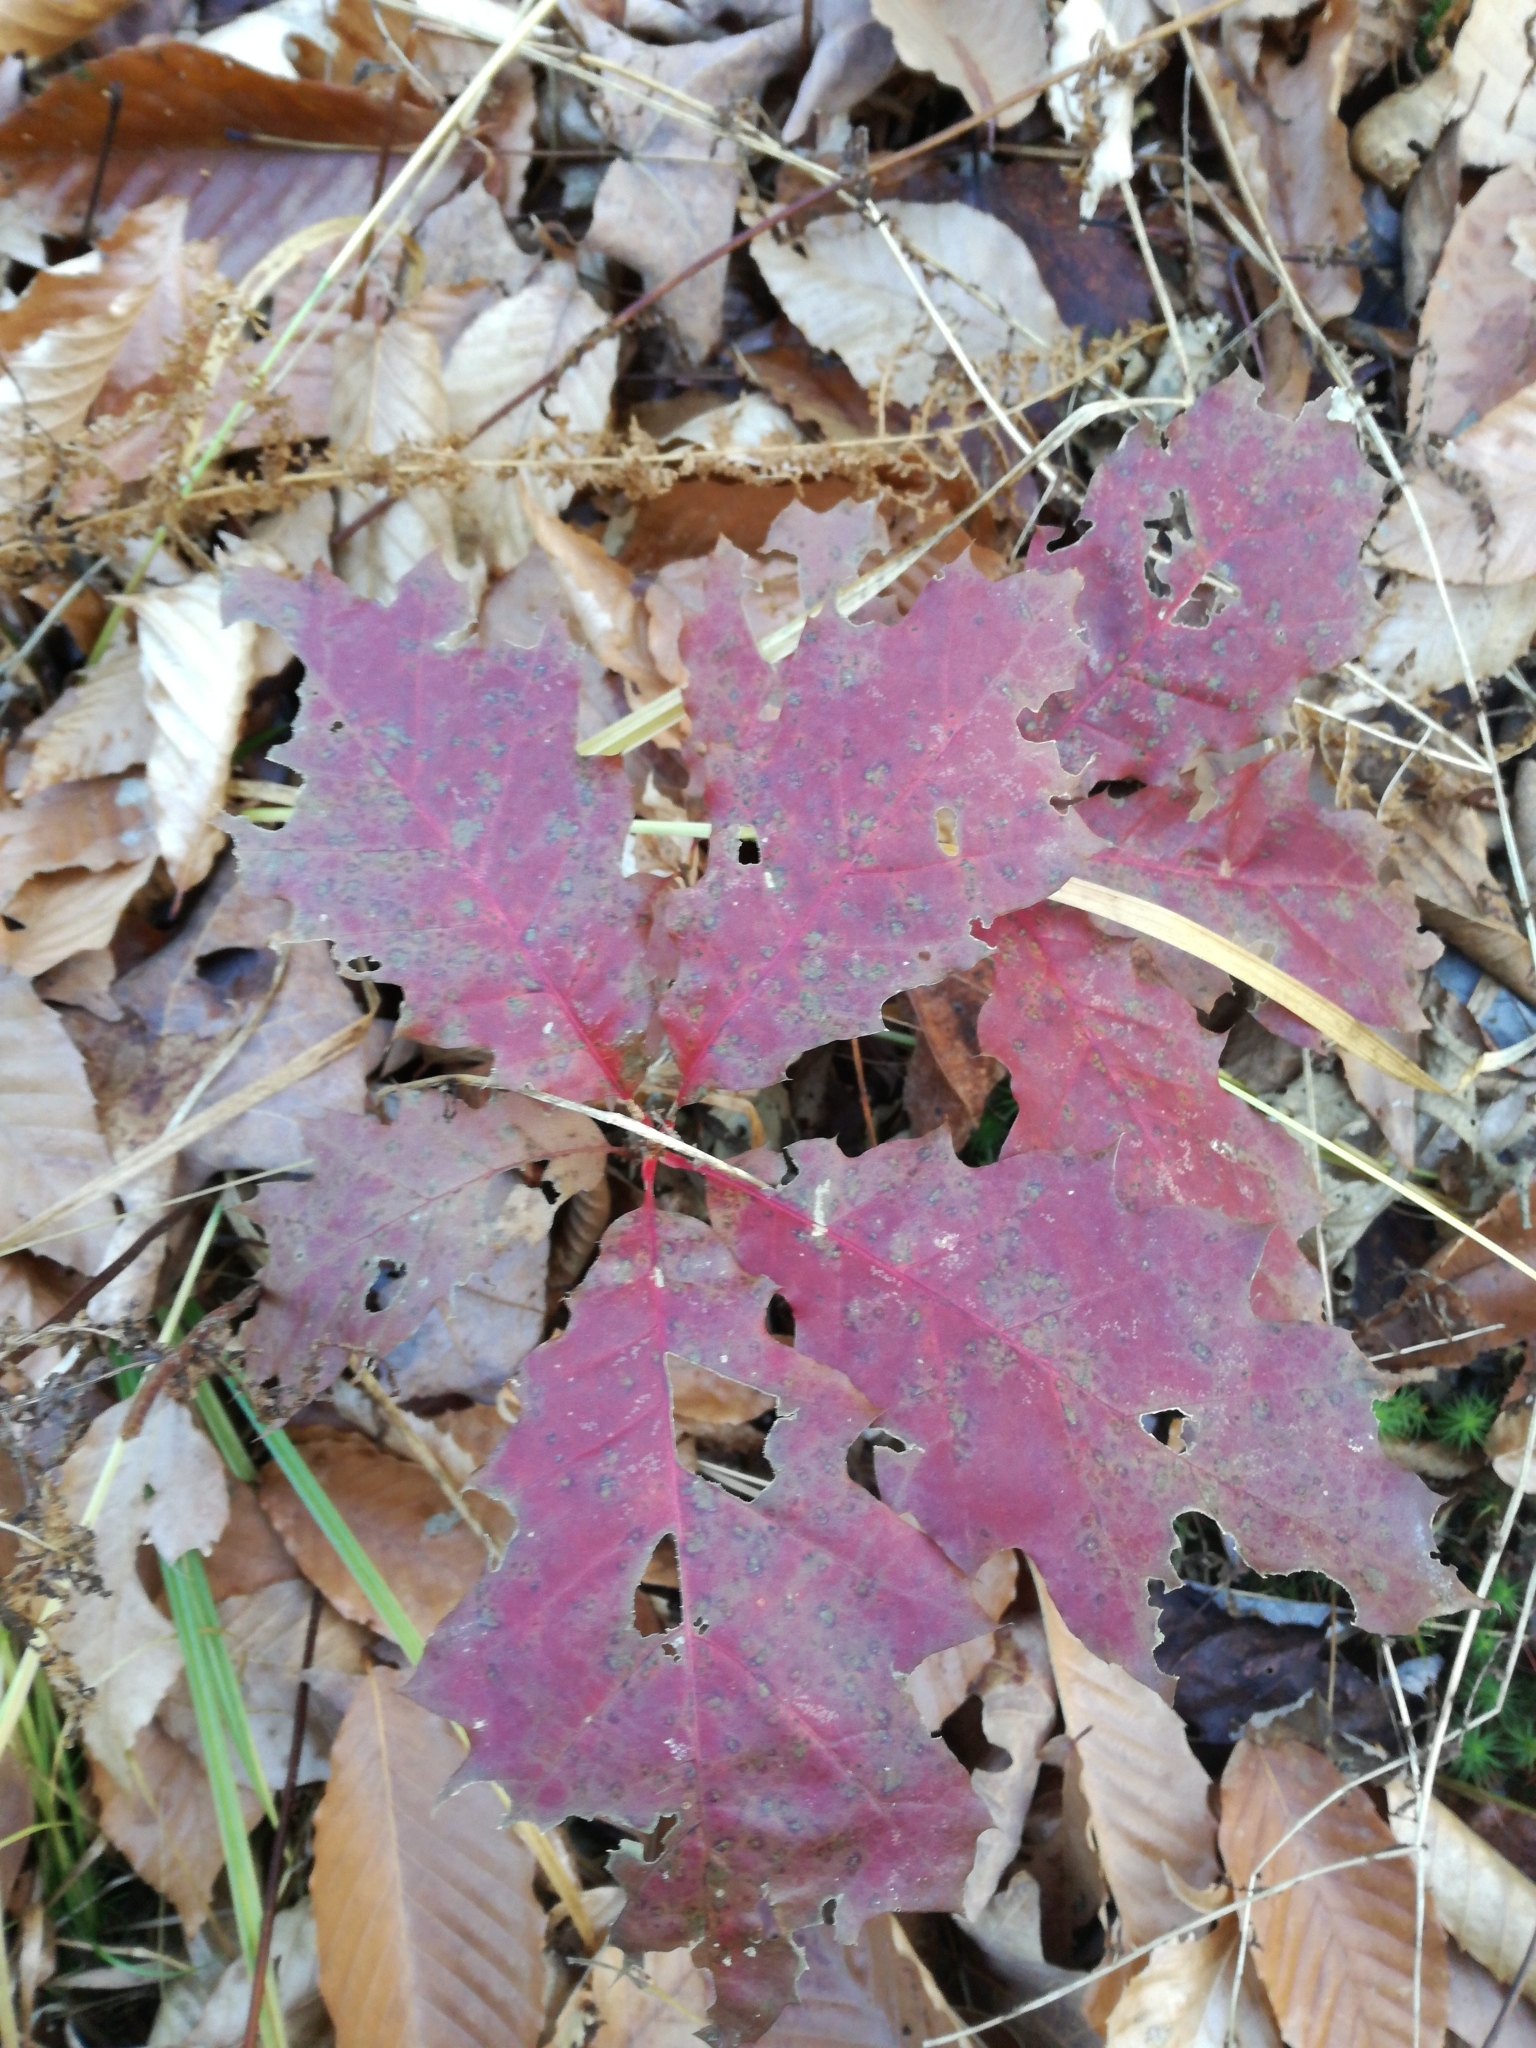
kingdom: Plantae
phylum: Tracheophyta
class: Magnoliopsida
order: Fagales
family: Fagaceae
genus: Quercus
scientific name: Quercus rubra
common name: Red oak
